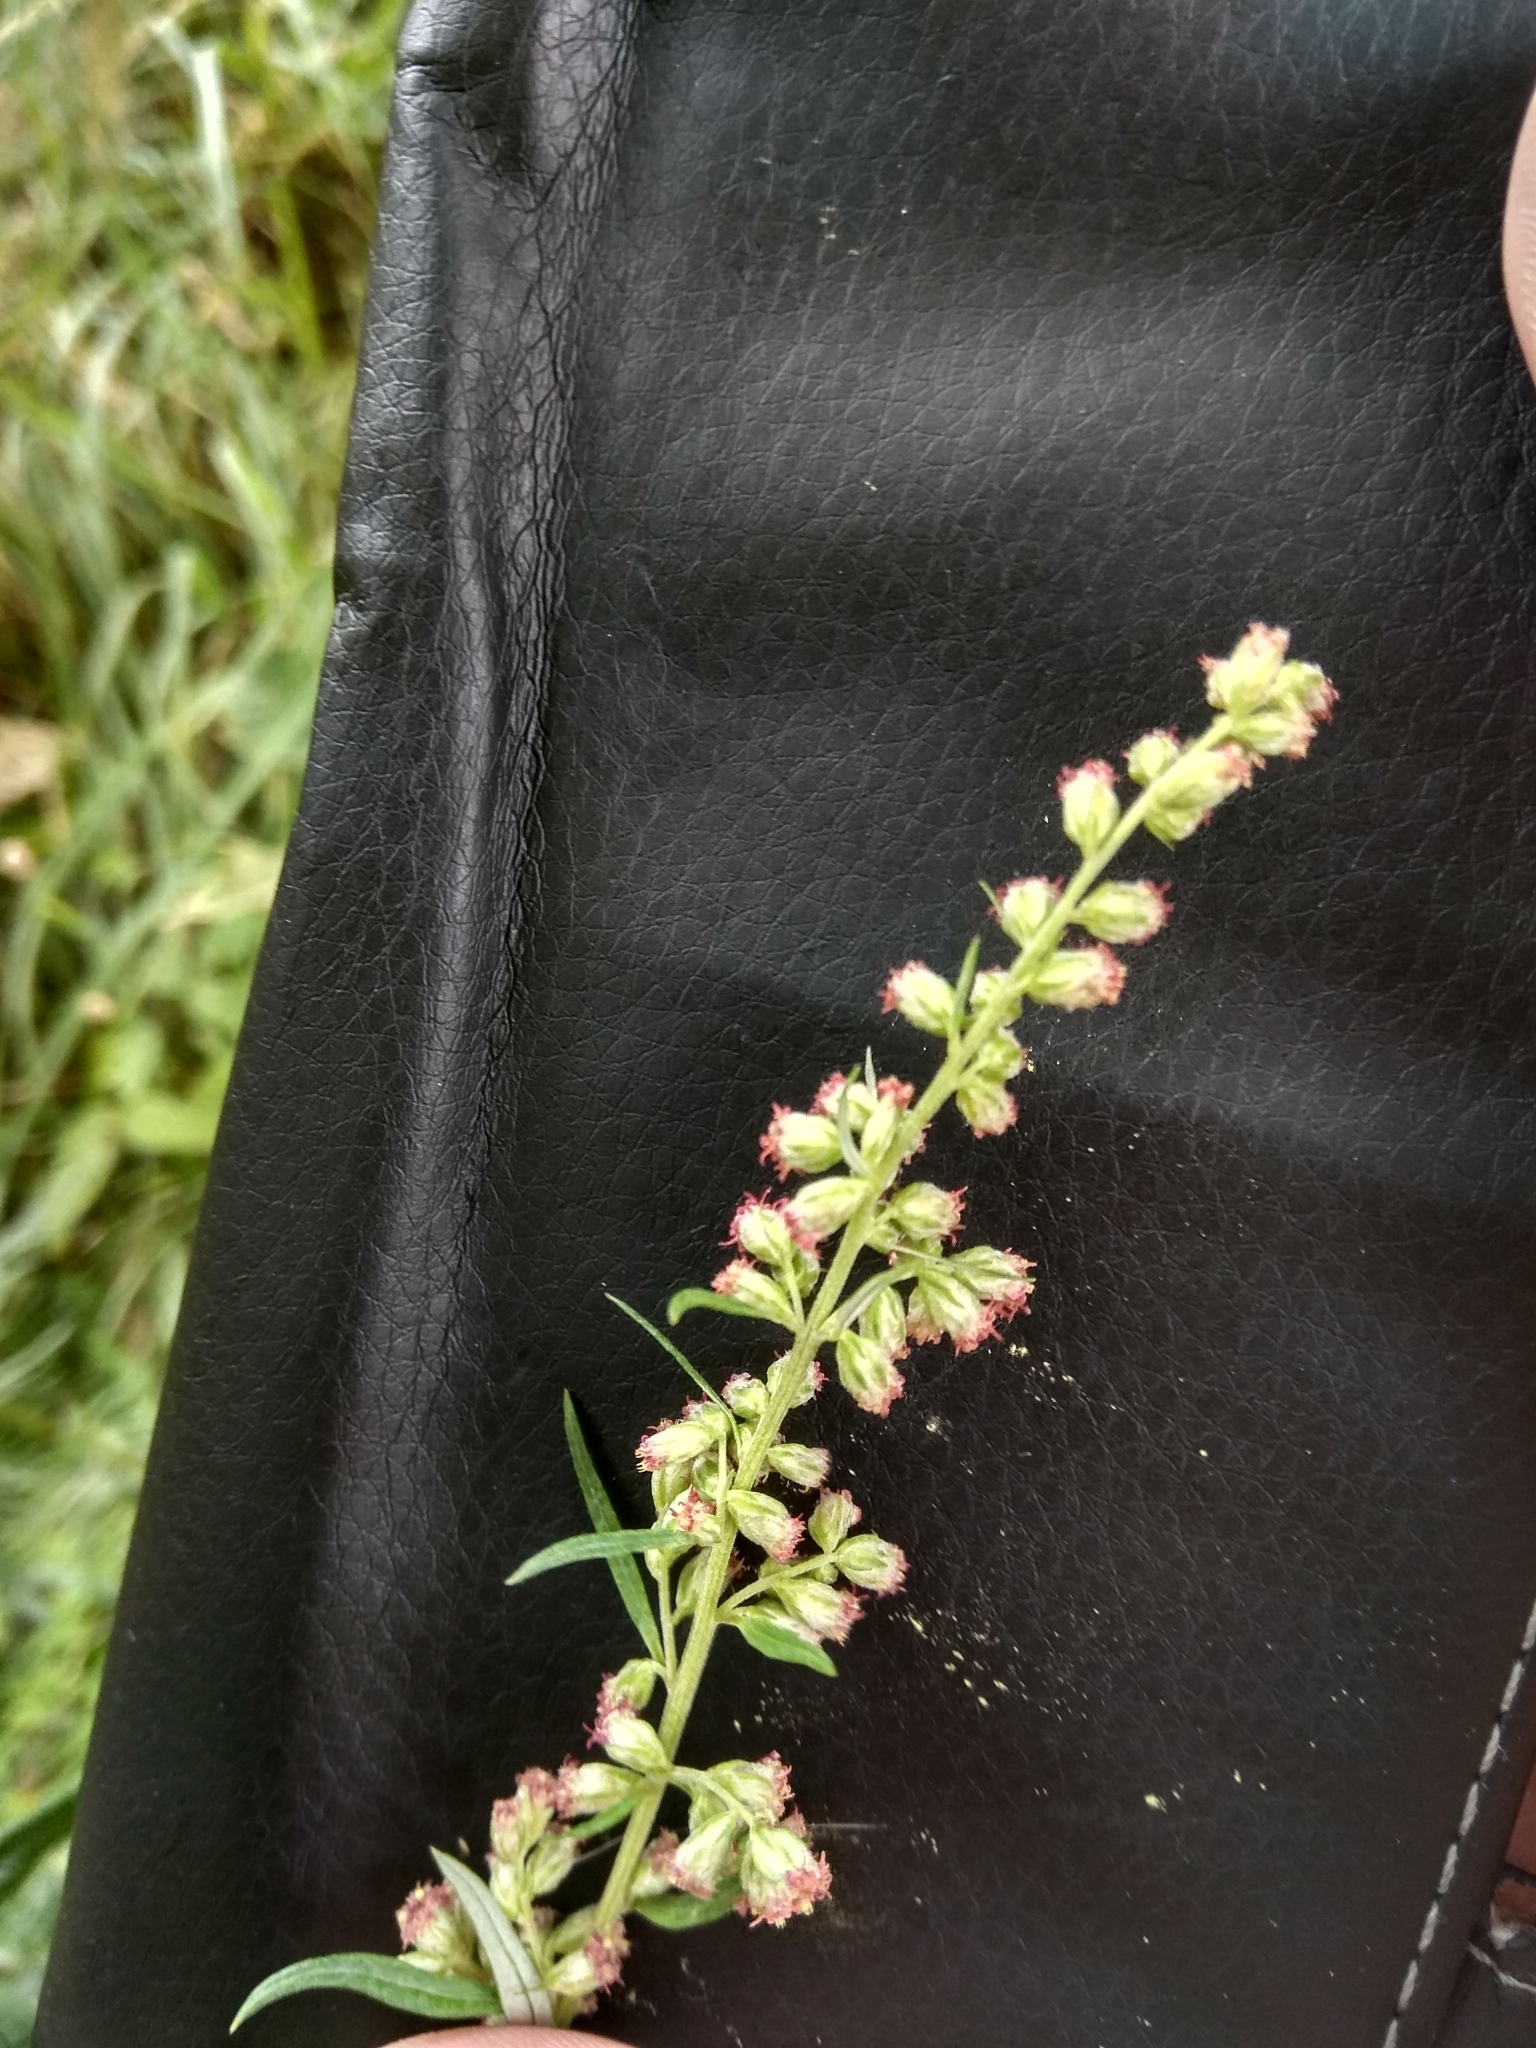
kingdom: Plantae
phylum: Tracheophyta
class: Magnoliopsida
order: Asterales
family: Asteraceae
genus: Artemisia
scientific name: Artemisia vulgaris
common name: Mugwort
